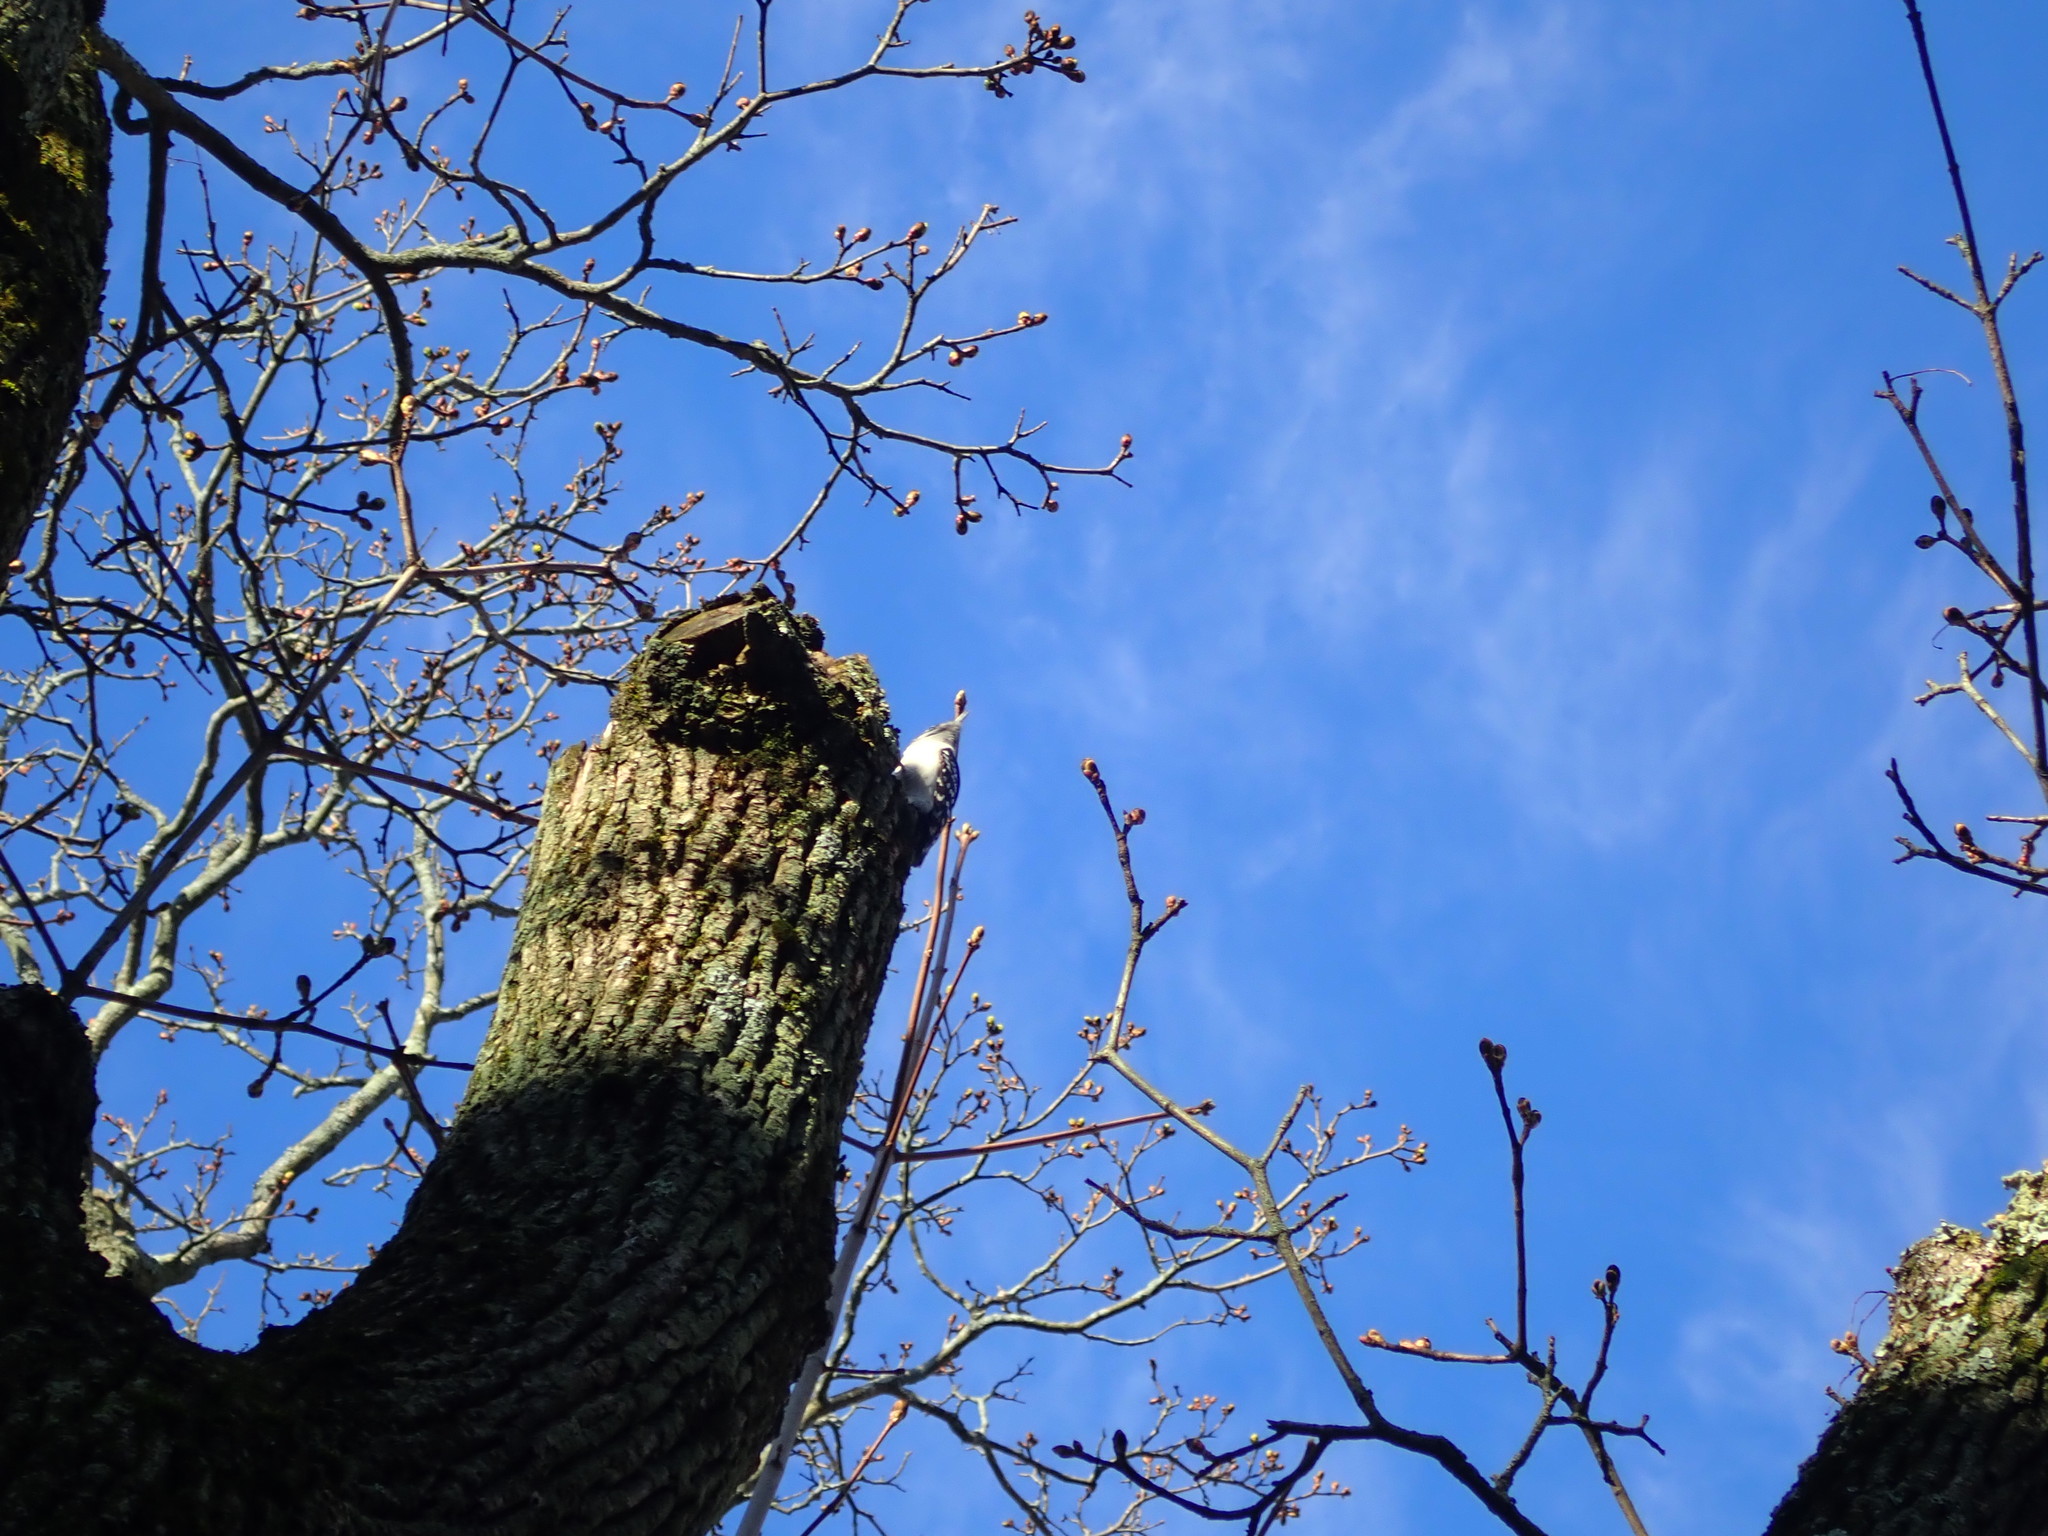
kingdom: Animalia
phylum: Chordata
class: Aves
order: Piciformes
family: Picidae
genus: Dryobates
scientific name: Dryobates pubescens
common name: Downy woodpecker
